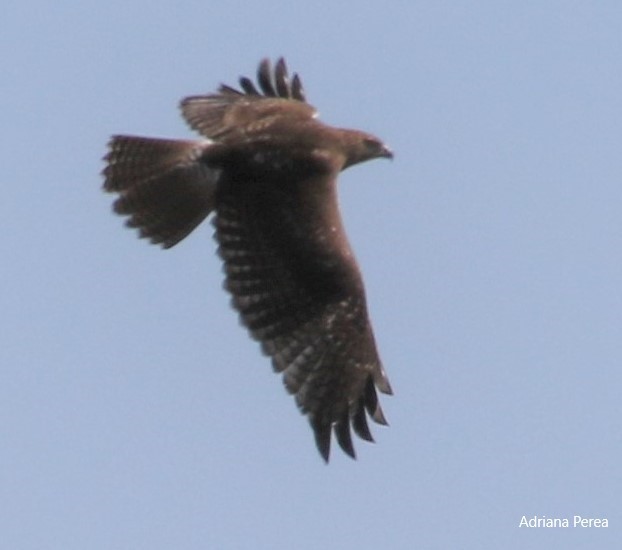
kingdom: Animalia
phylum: Chordata
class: Aves
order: Accipitriformes
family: Accipitridae
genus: Buteo
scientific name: Buteo jamaicensis
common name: Red-tailed hawk
